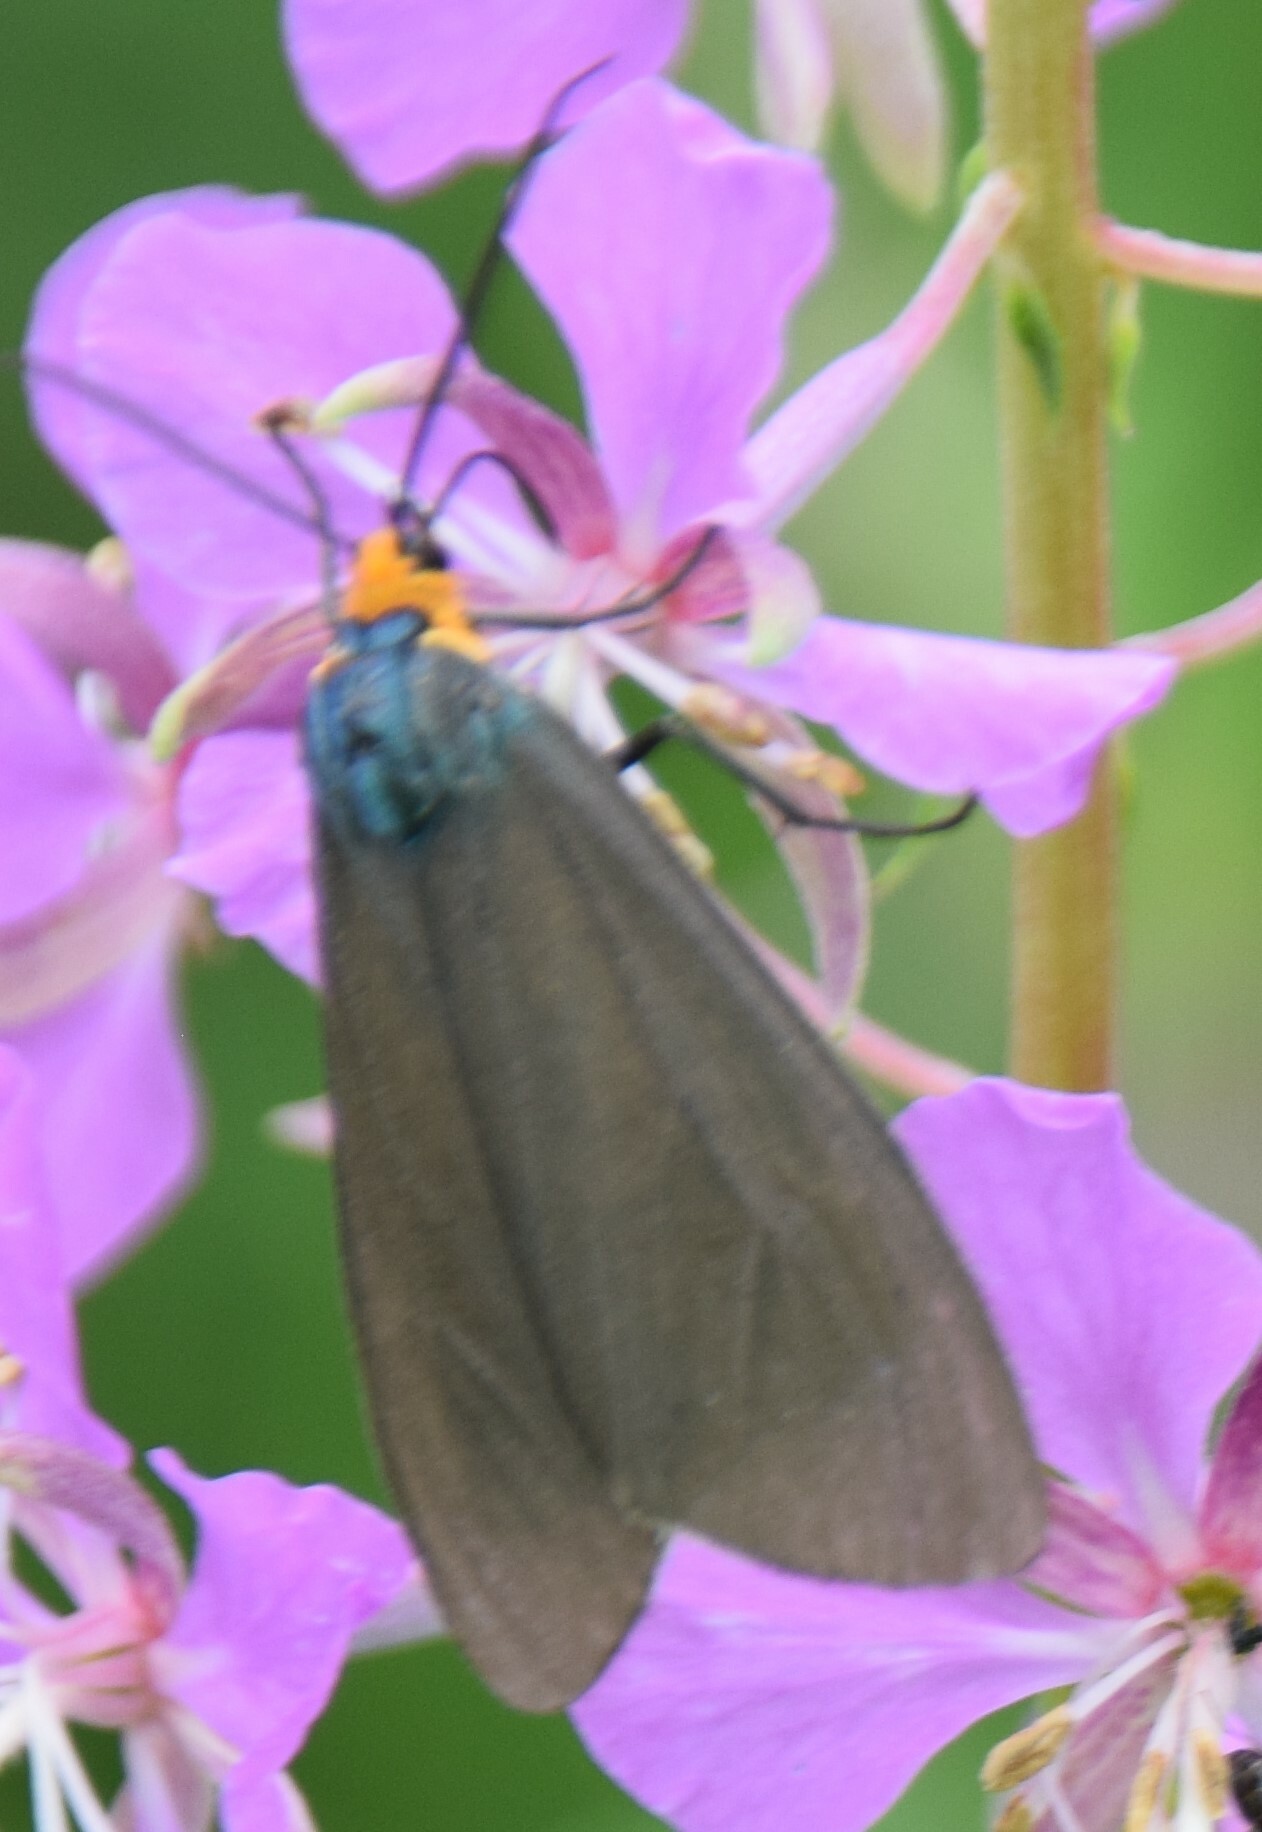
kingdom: Animalia
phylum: Arthropoda
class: Insecta
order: Lepidoptera
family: Erebidae
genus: Ctenucha
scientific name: Ctenucha virginica
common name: Virginia ctenucha moth
